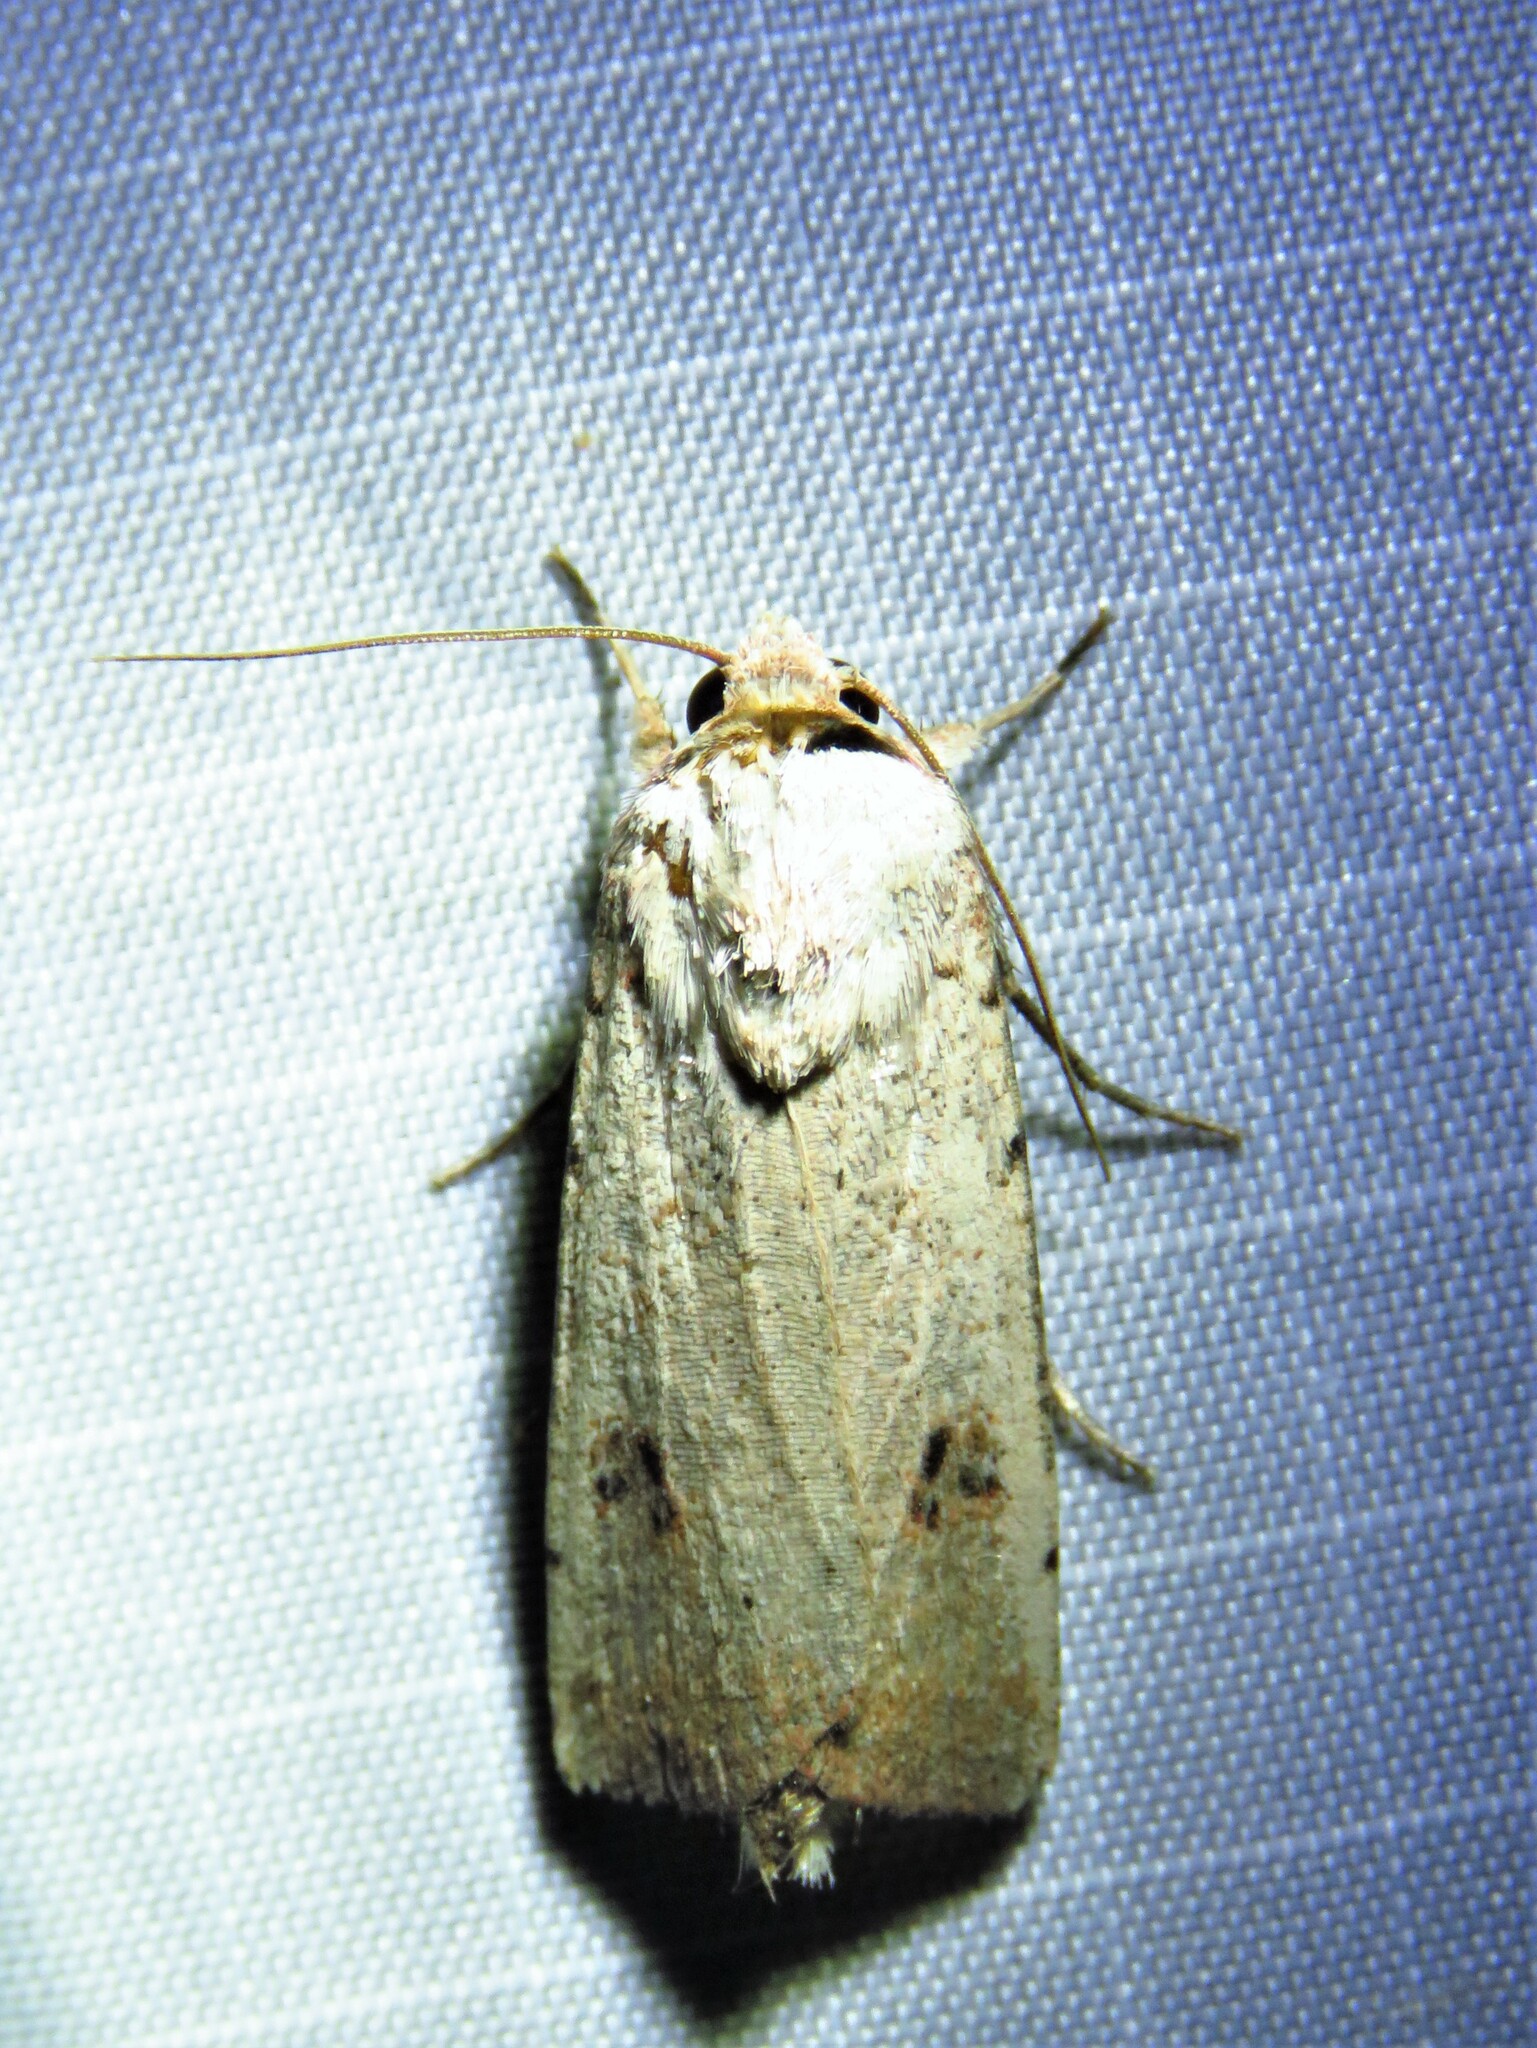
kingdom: Animalia
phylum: Arthropoda
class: Insecta
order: Lepidoptera
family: Noctuidae
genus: Anicla
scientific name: Anicla infecta
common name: Green cutworm
